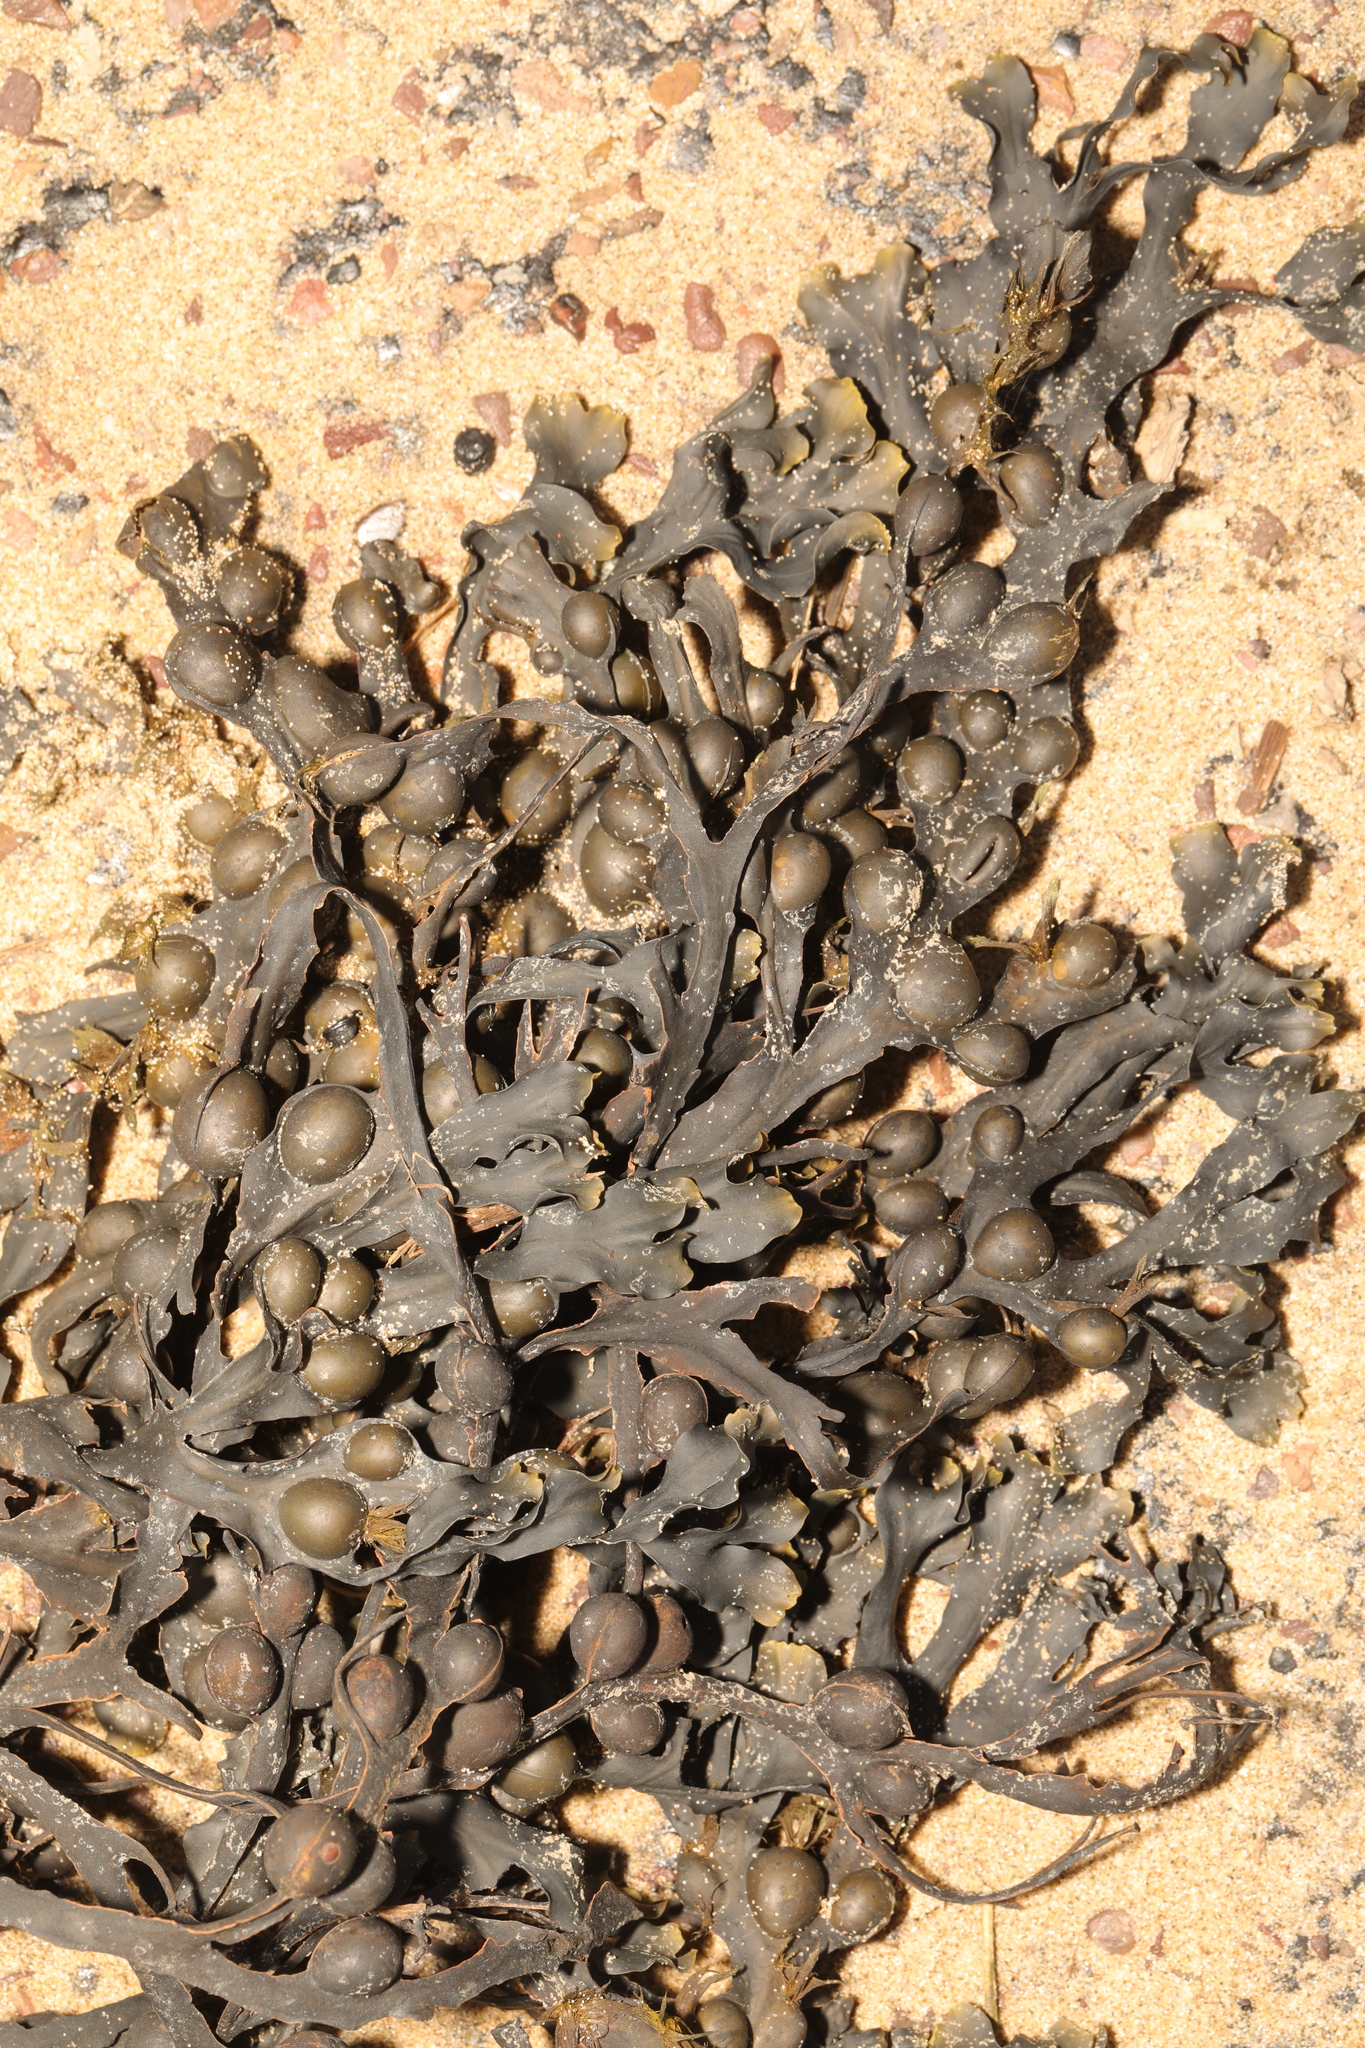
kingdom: Chromista
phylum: Ochrophyta
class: Phaeophyceae
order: Fucales
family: Fucaceae
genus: Fucus
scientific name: Fucus vesiculosus
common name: Bladder wrack
